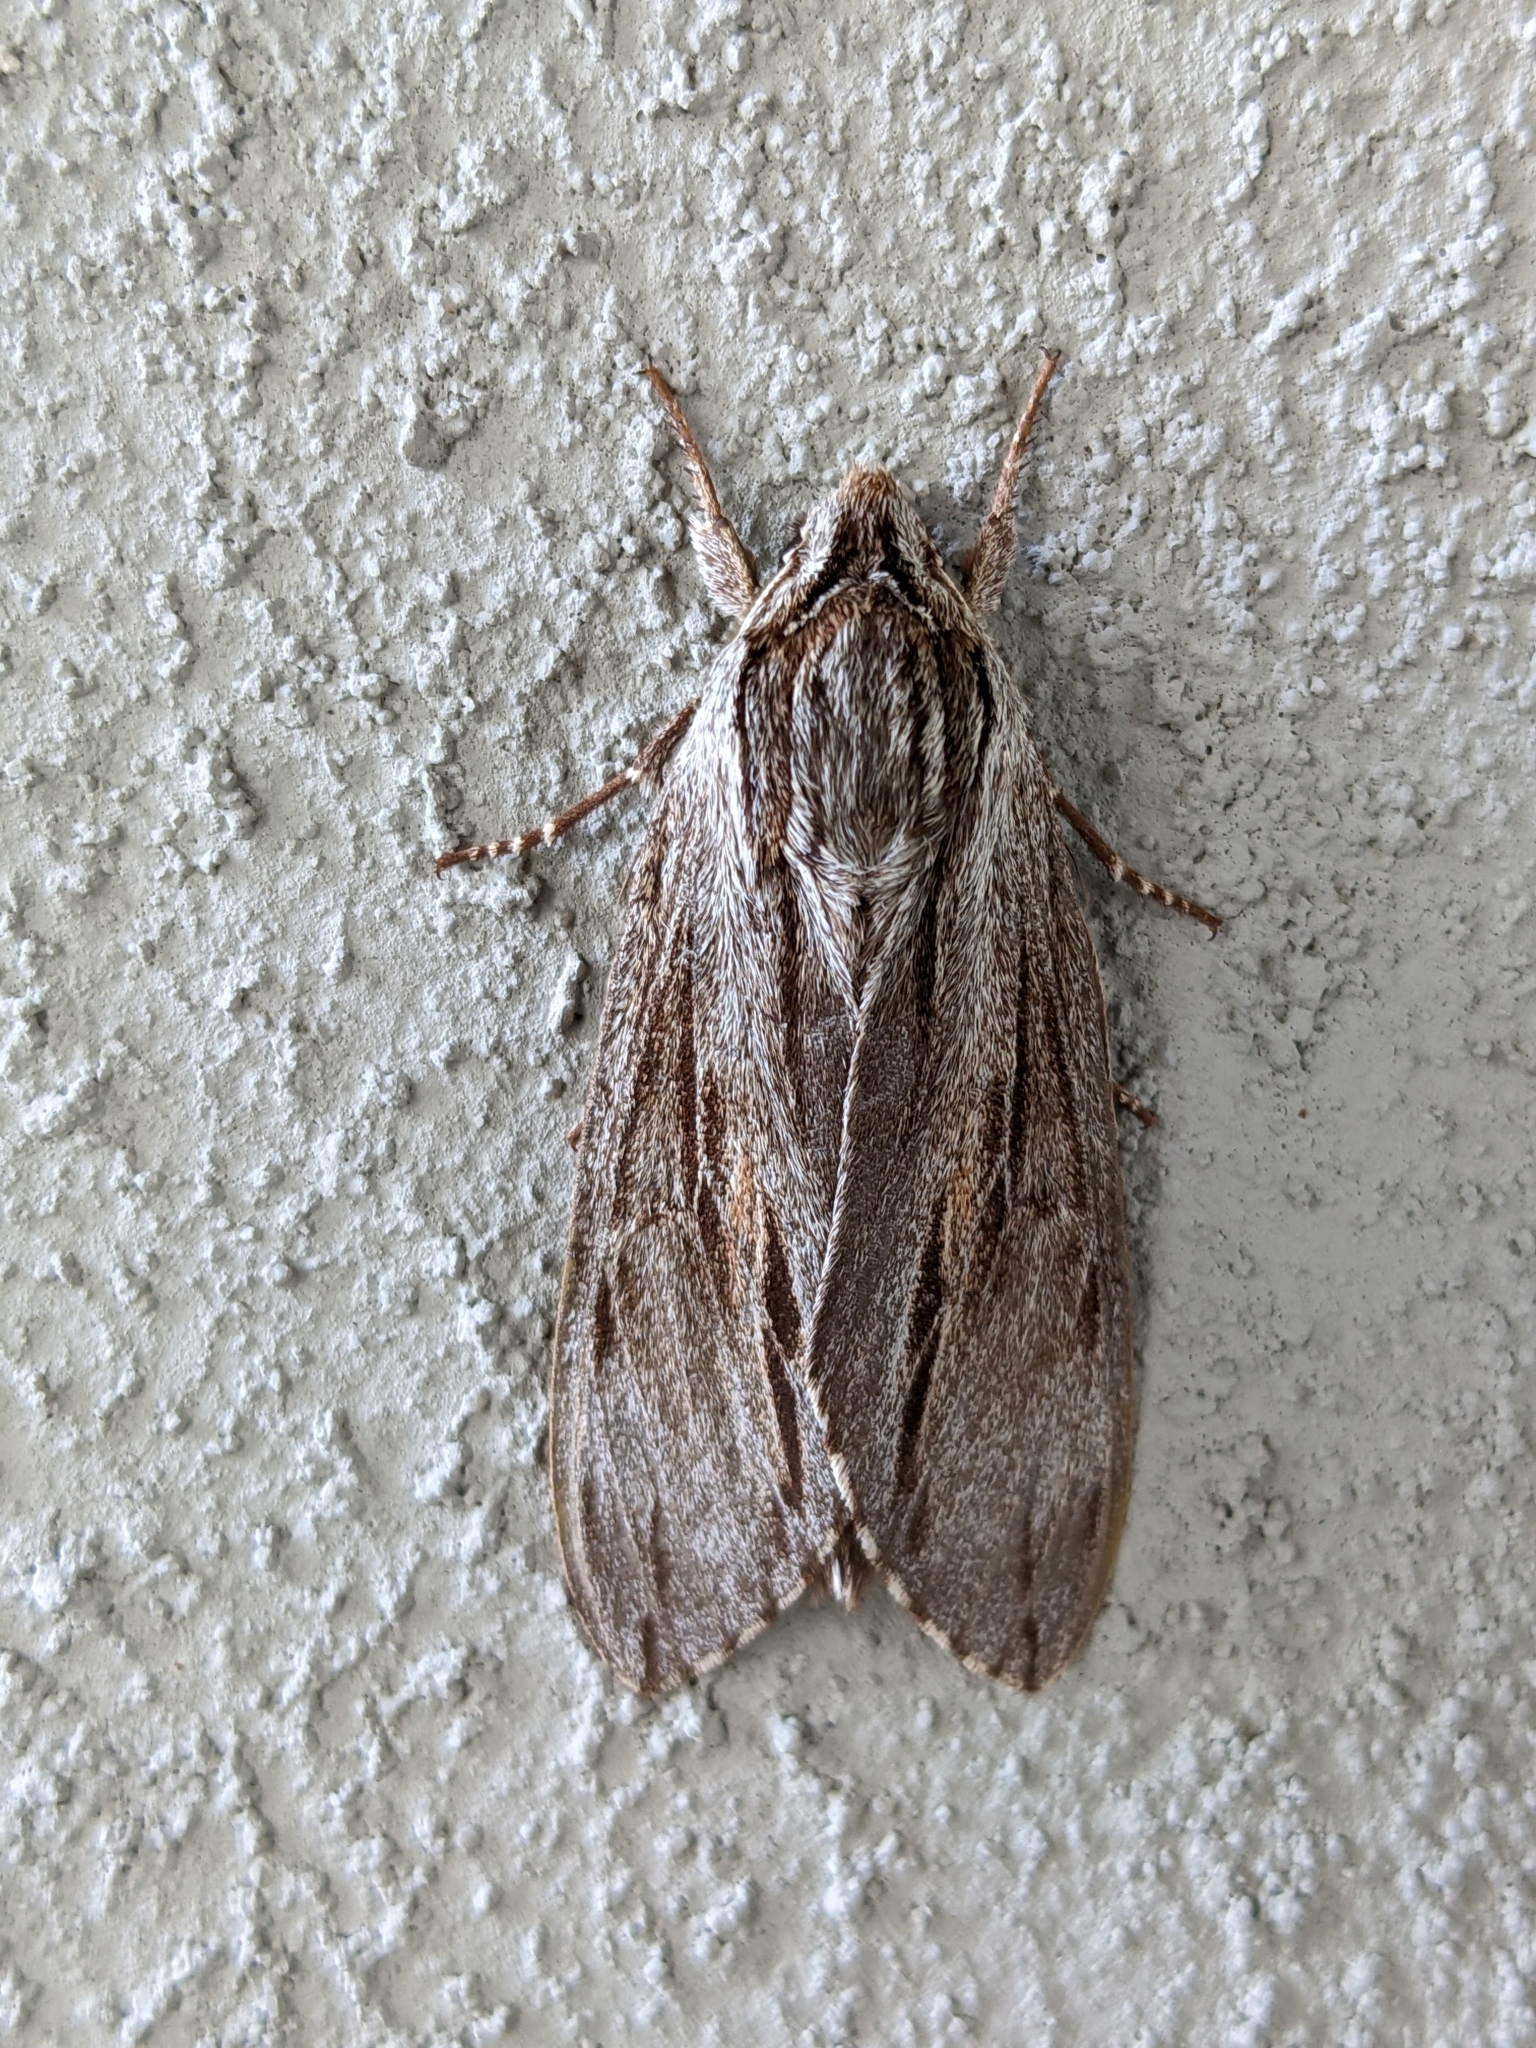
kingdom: Animalia
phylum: Arthropoda
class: Insecta
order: Lepidoptera
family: Sphingidae
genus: Isoparce
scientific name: Isoparce cupressi
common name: Cypress sphinx
